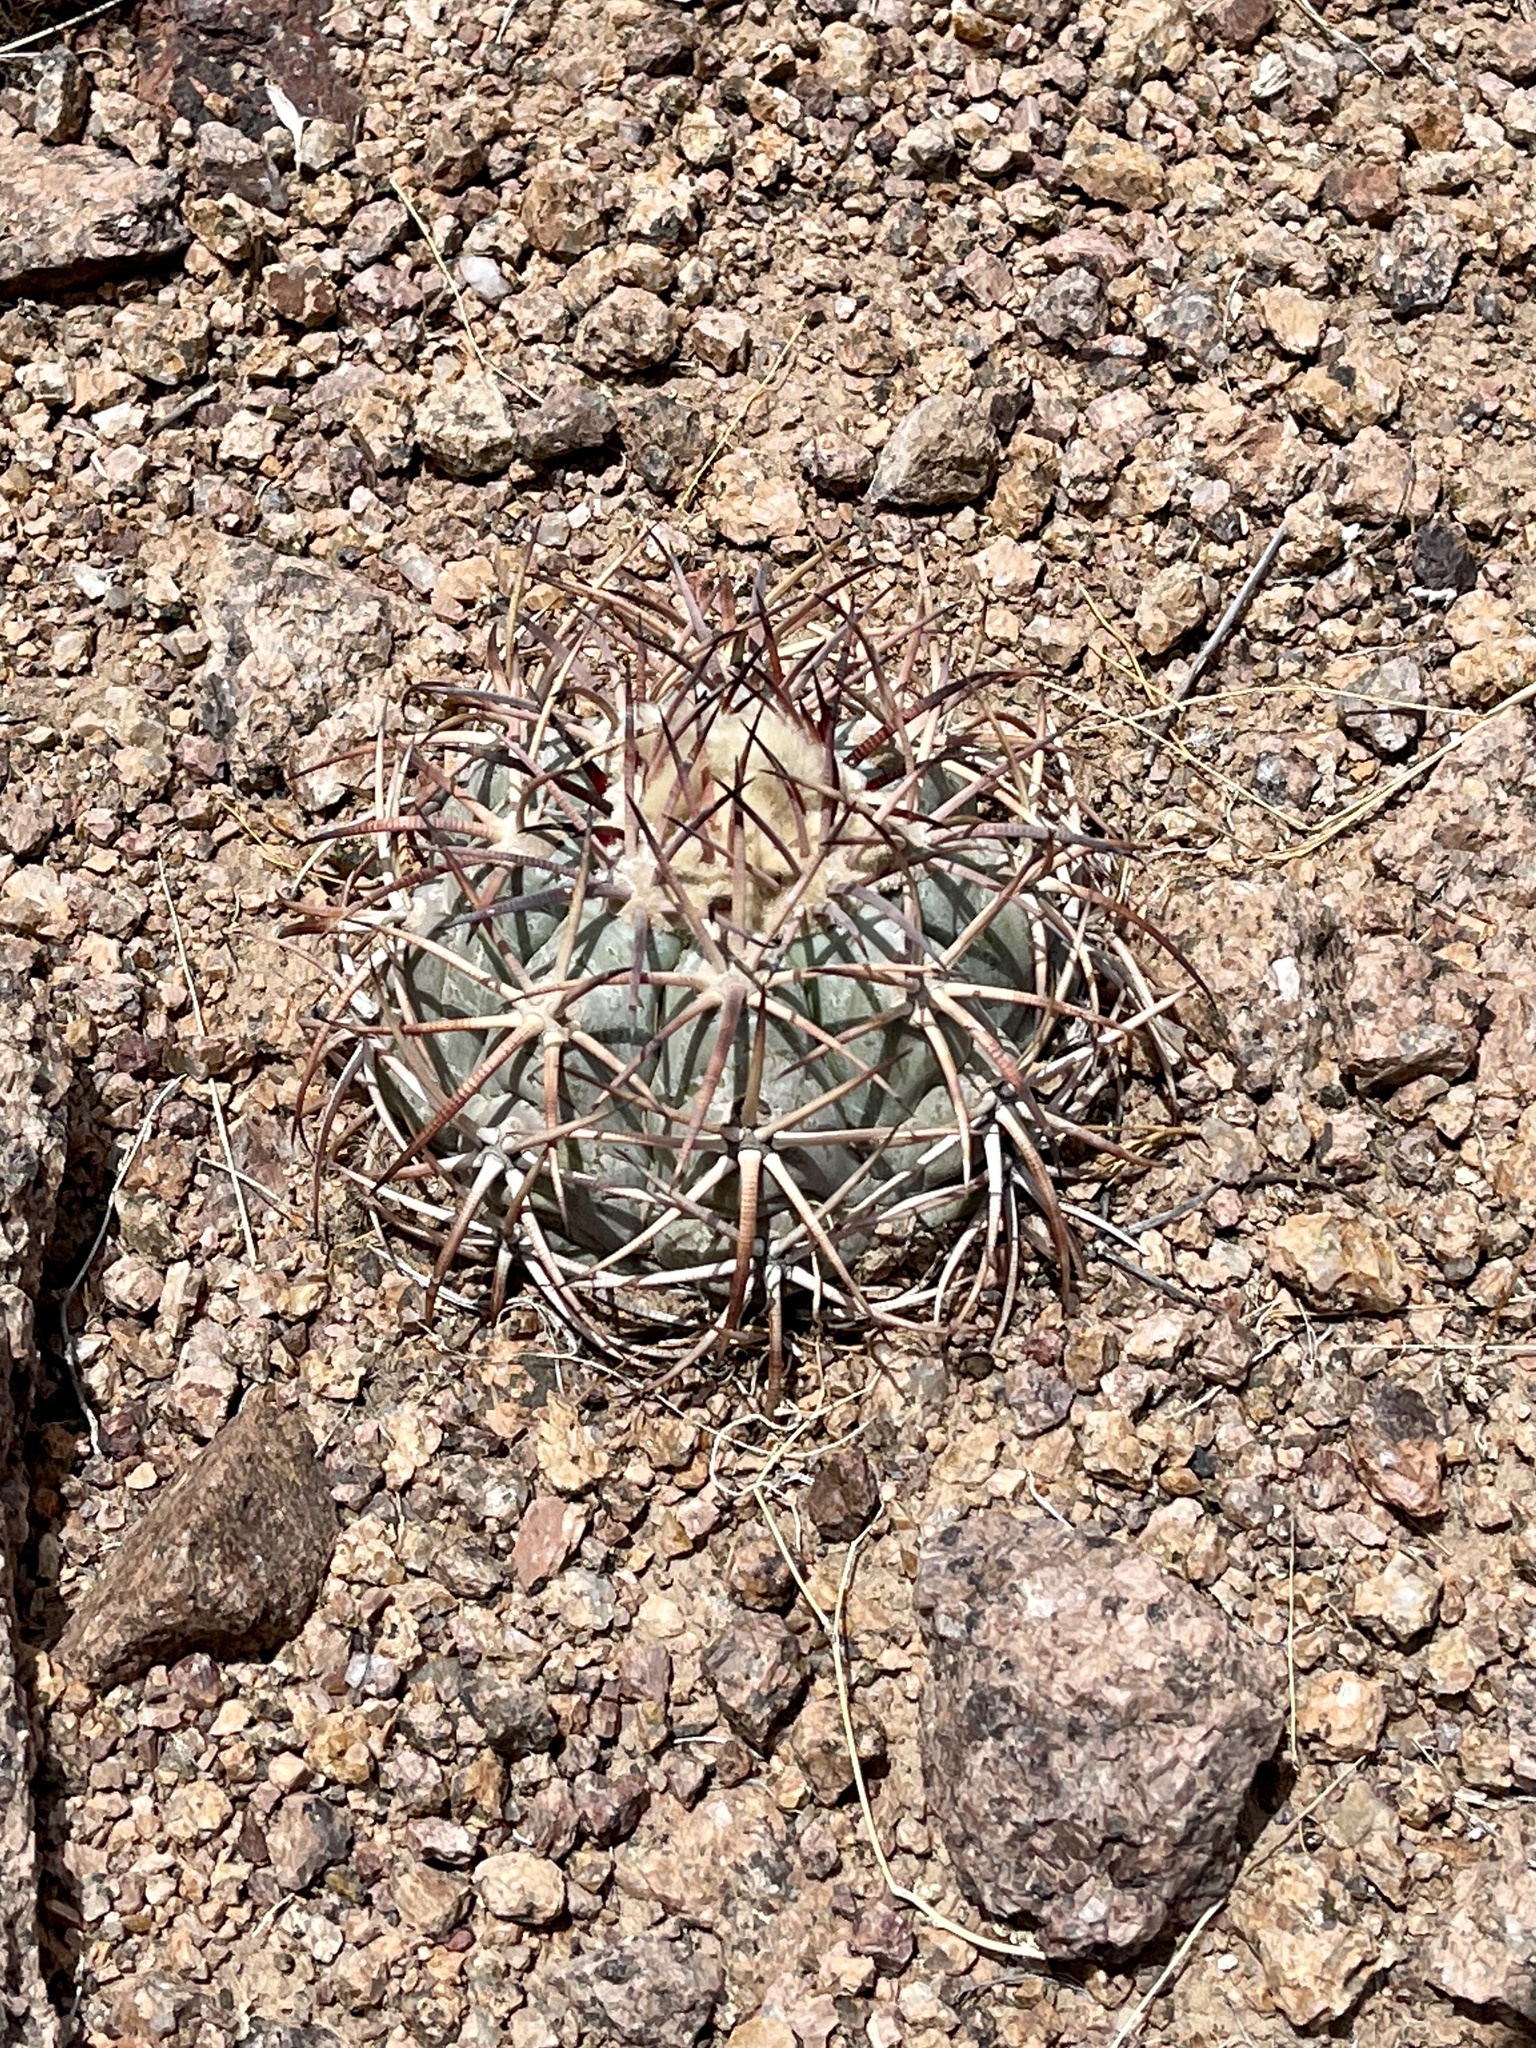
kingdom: Plantae
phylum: Tracheophyta
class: Magnoliopsida
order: Caryophyllales
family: Cactaceae
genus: Echinocactus
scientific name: Echinocactus horizonthalonius
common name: Devilshead
